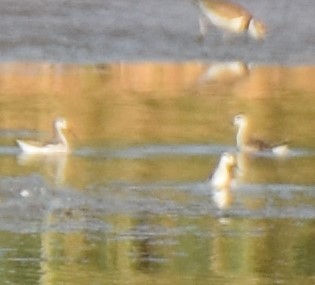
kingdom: Animalia
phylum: Chordata
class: Aves
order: Charadriiformes
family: Scolopacidae
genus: Phalaropus
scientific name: Phalaropus tricolor
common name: Wilson's phalarope
